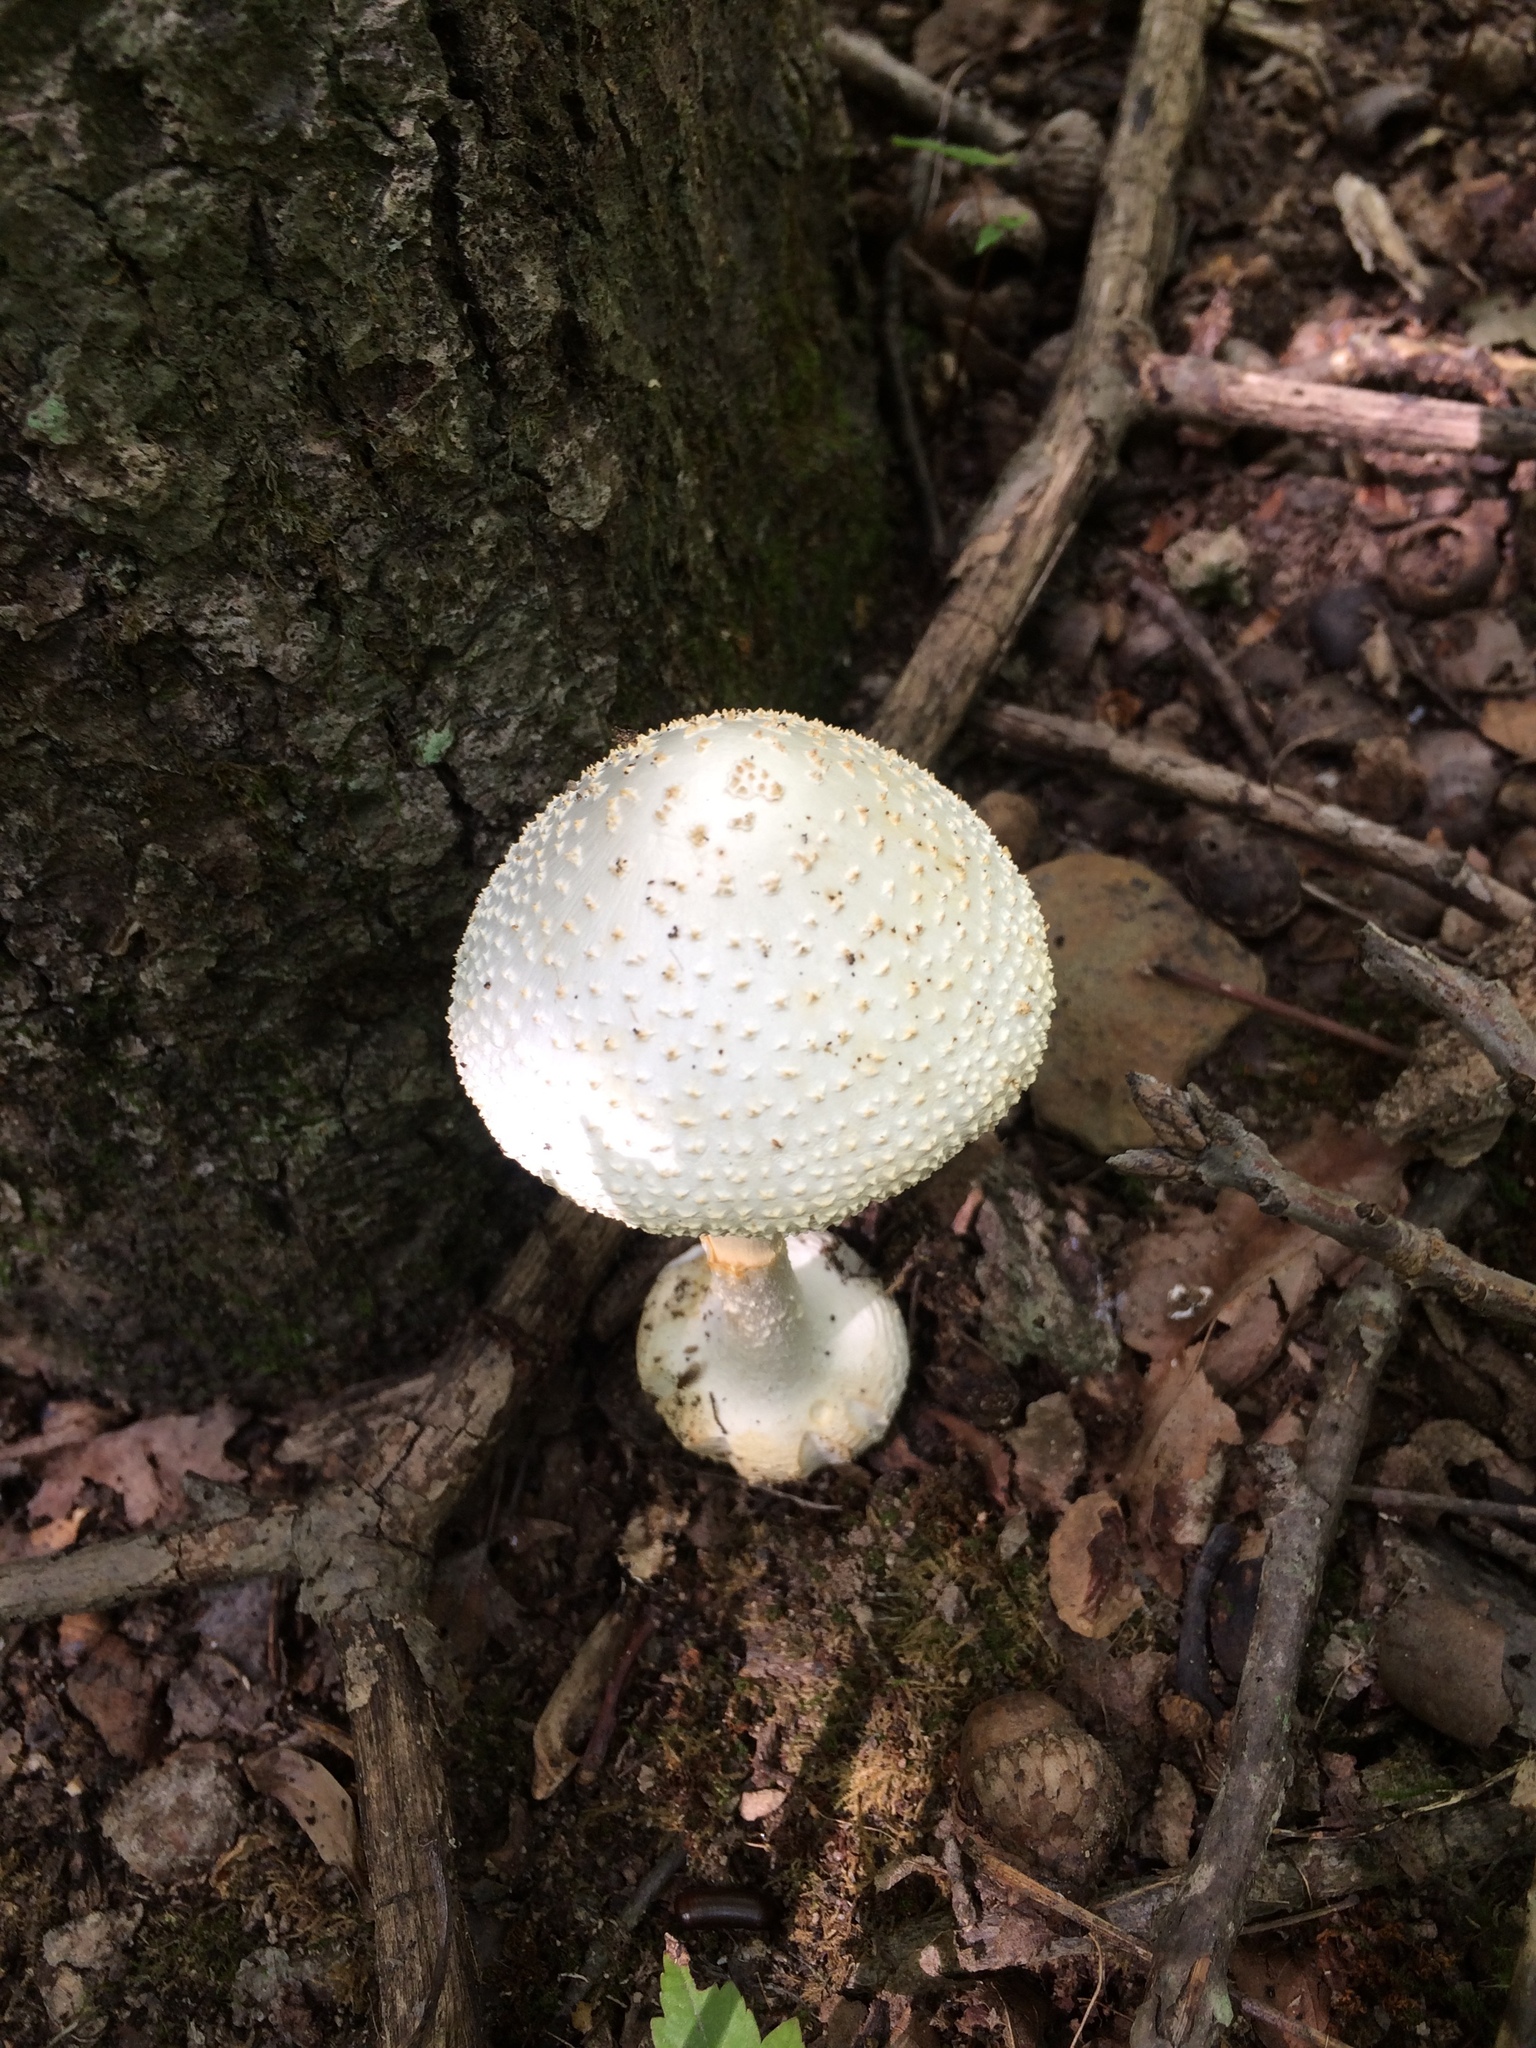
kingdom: Fungi
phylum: Basidiomycota
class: Agaricomycetes
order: Agaricales
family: Amanitaceae
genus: Amanita
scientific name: Amanita abrupta
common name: American abrupt-bulbed lepidella
